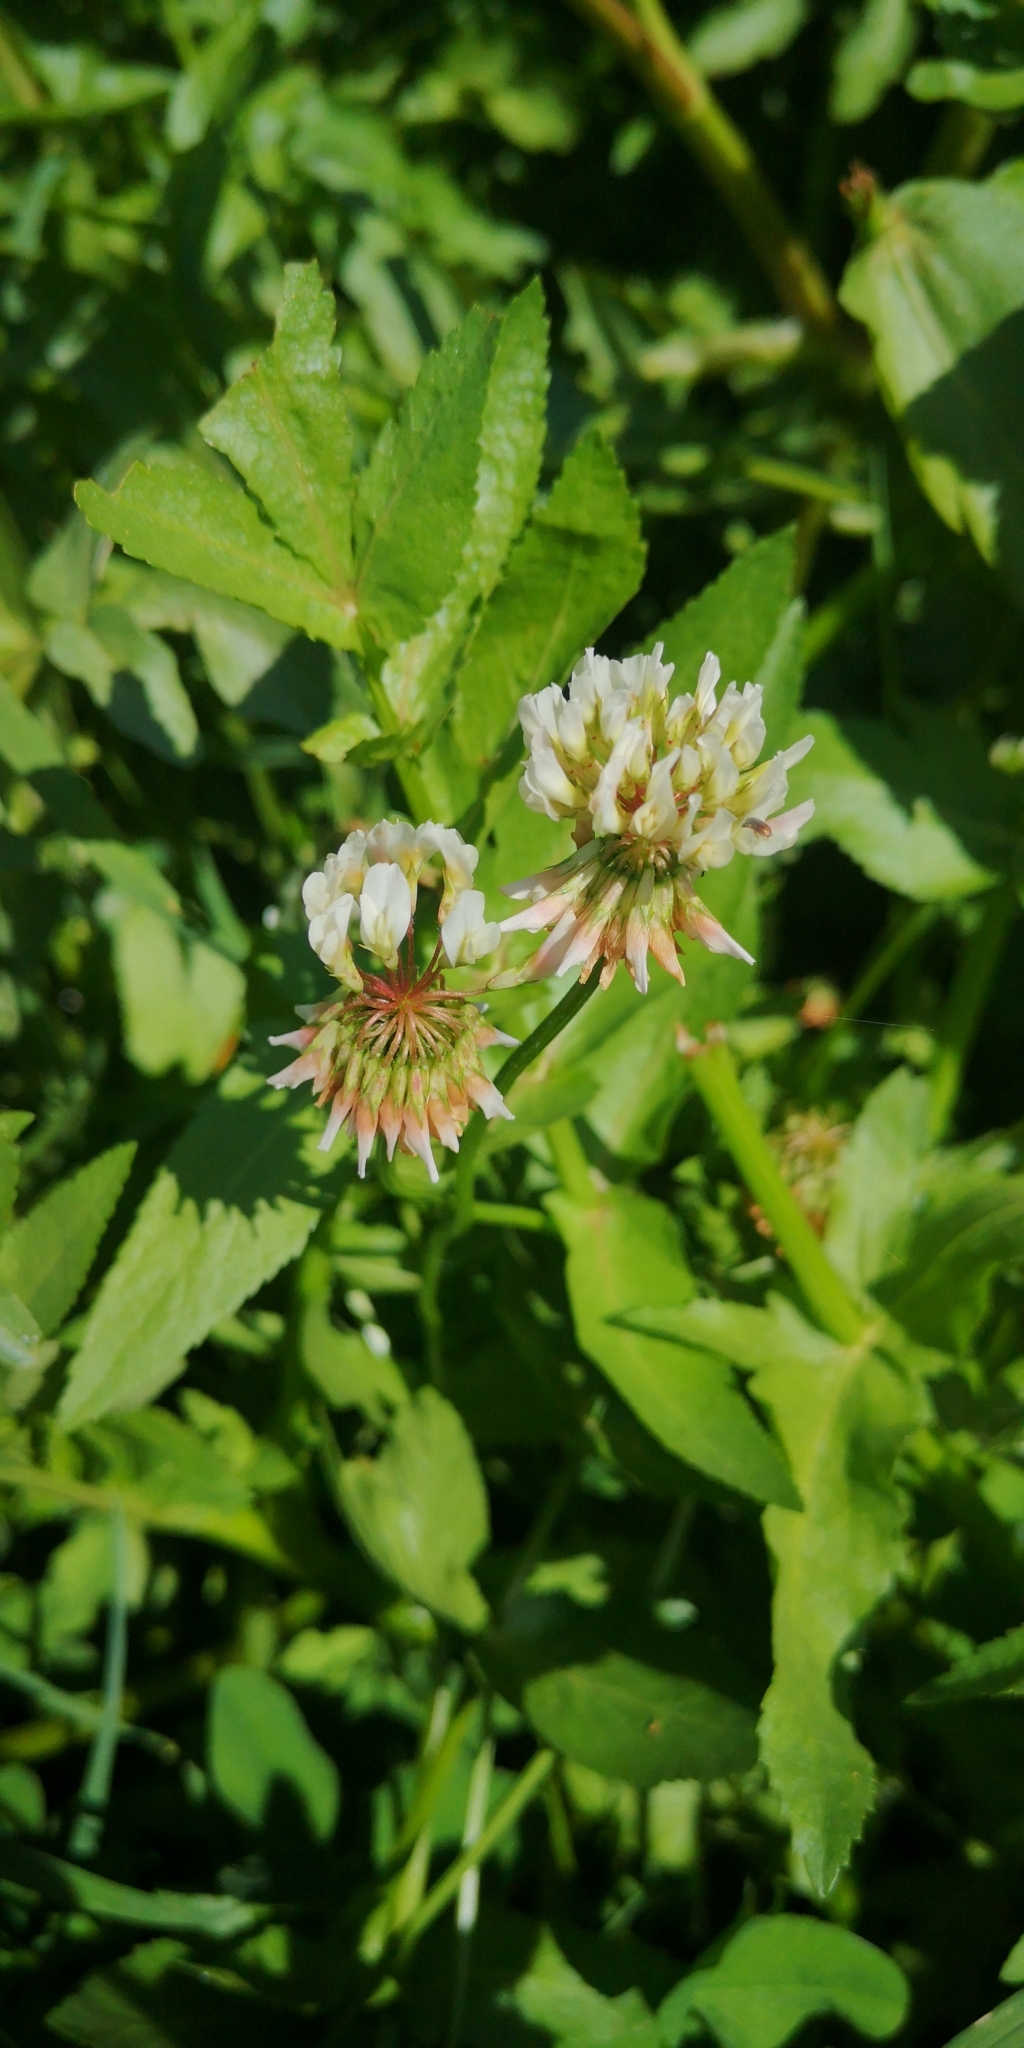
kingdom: Plantae
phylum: Tracheophyta
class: Magnoliopsida
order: Fabales
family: Fabaceae
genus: Trifolium
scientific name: Trifolium repens
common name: White clover
